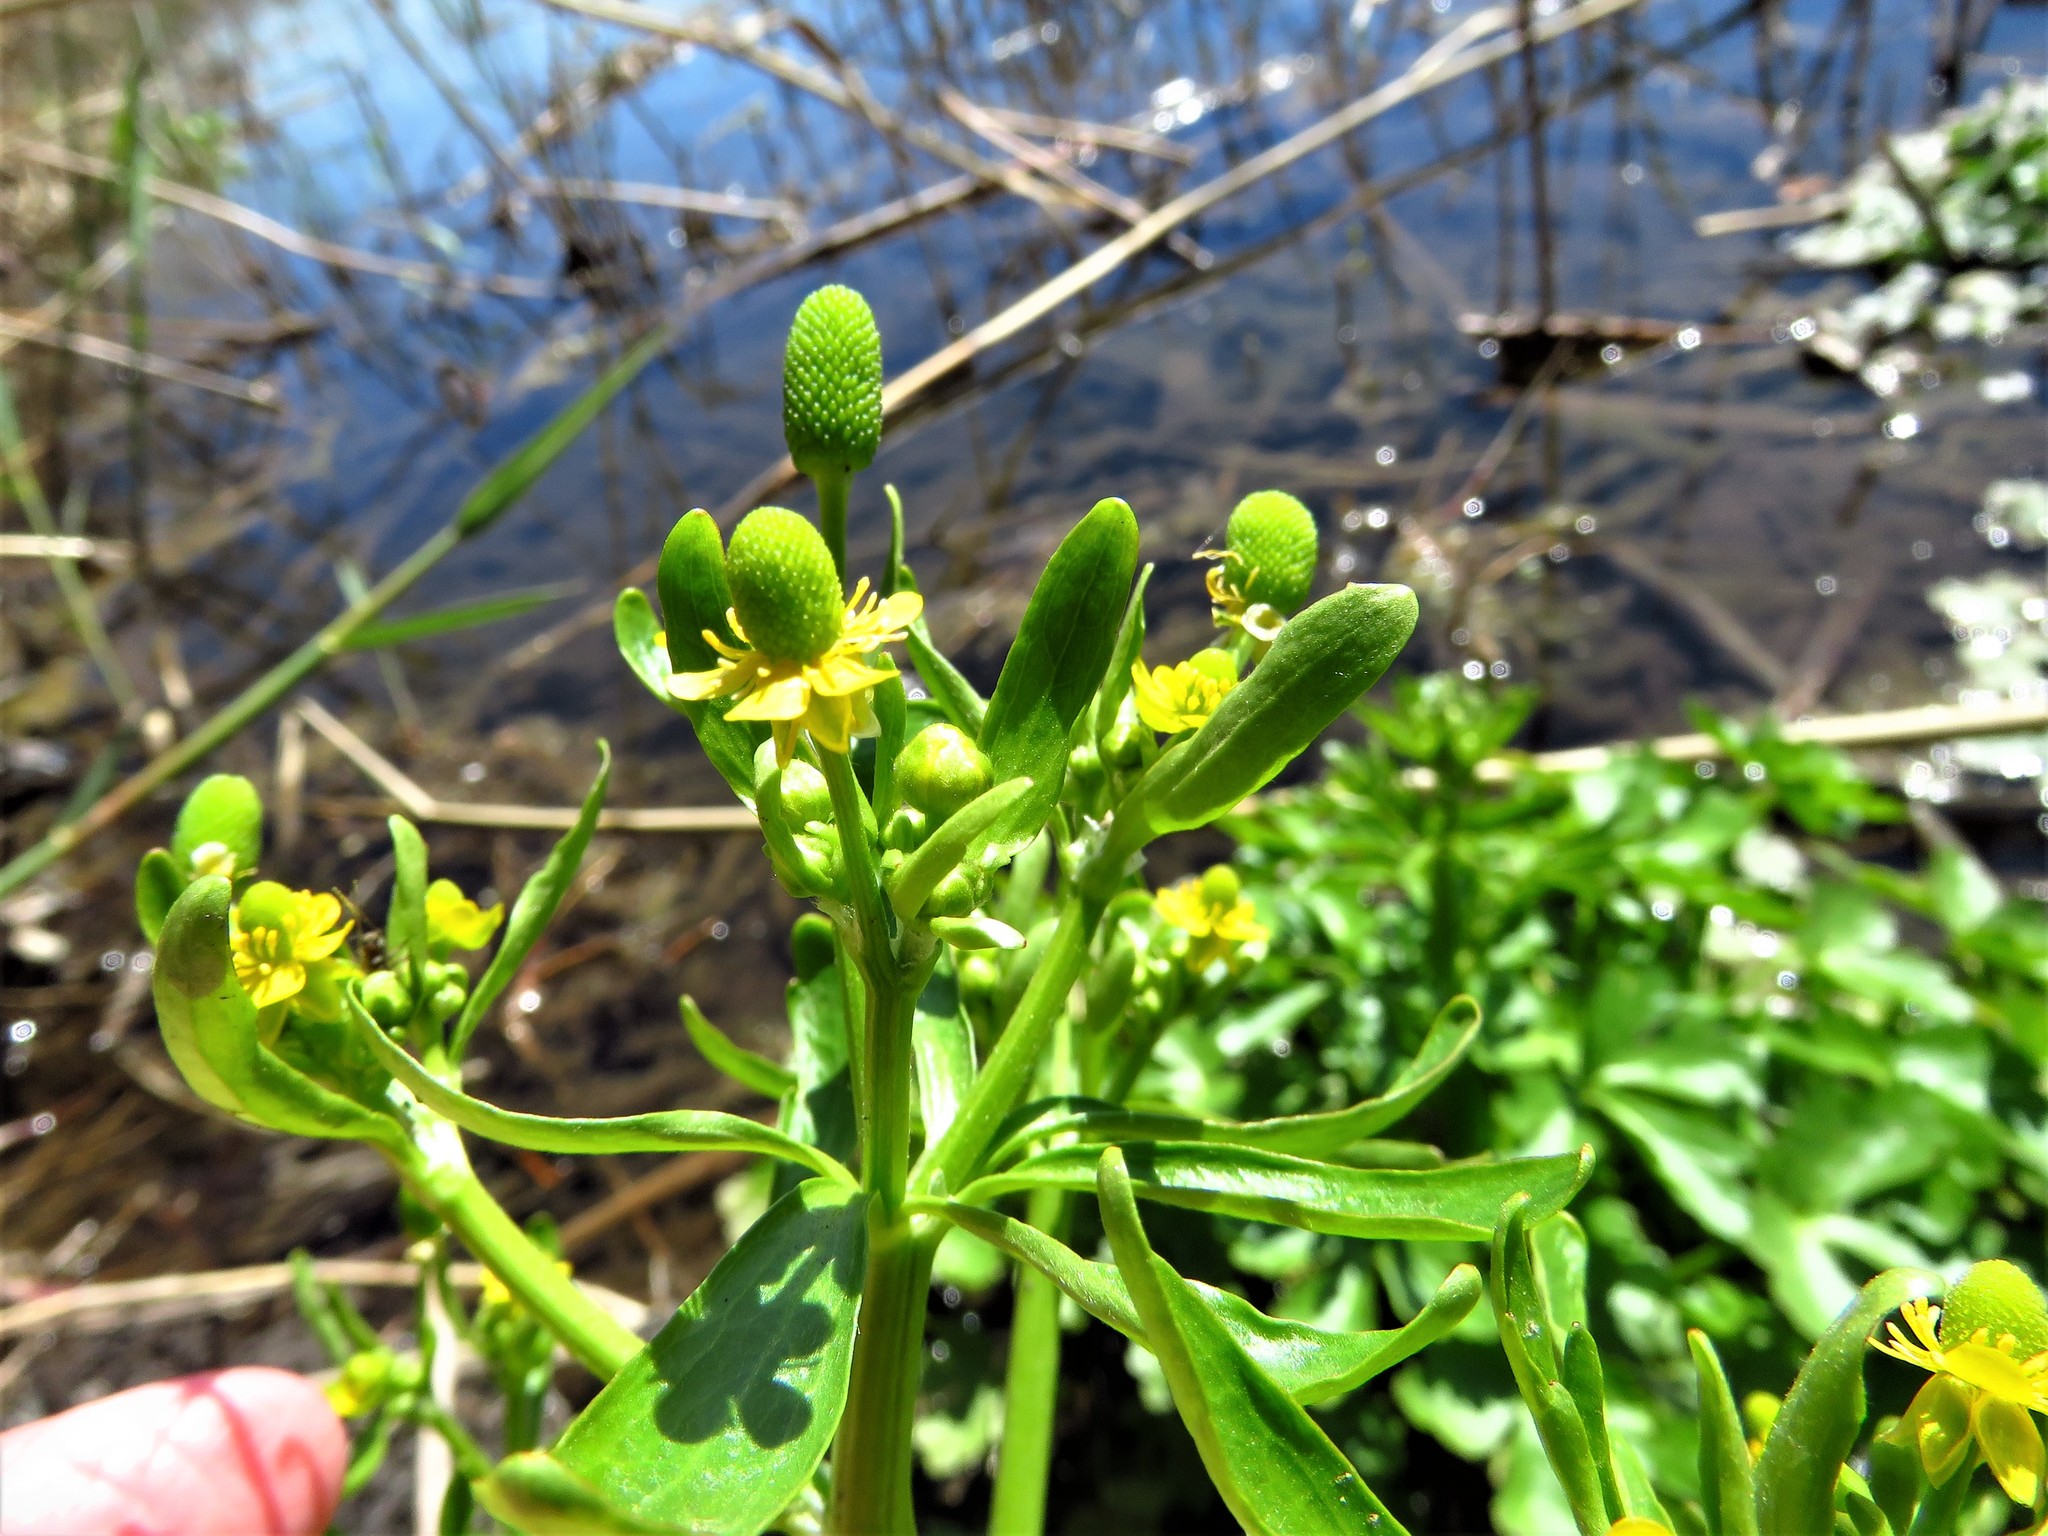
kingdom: Plantae
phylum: Tracheophyta
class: Magnoliopsida
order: Ranunculales
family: Ranunculaceae
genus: Ranunculus
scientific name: Ranunculus sceleratus
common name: Celery-leaved buttercup
